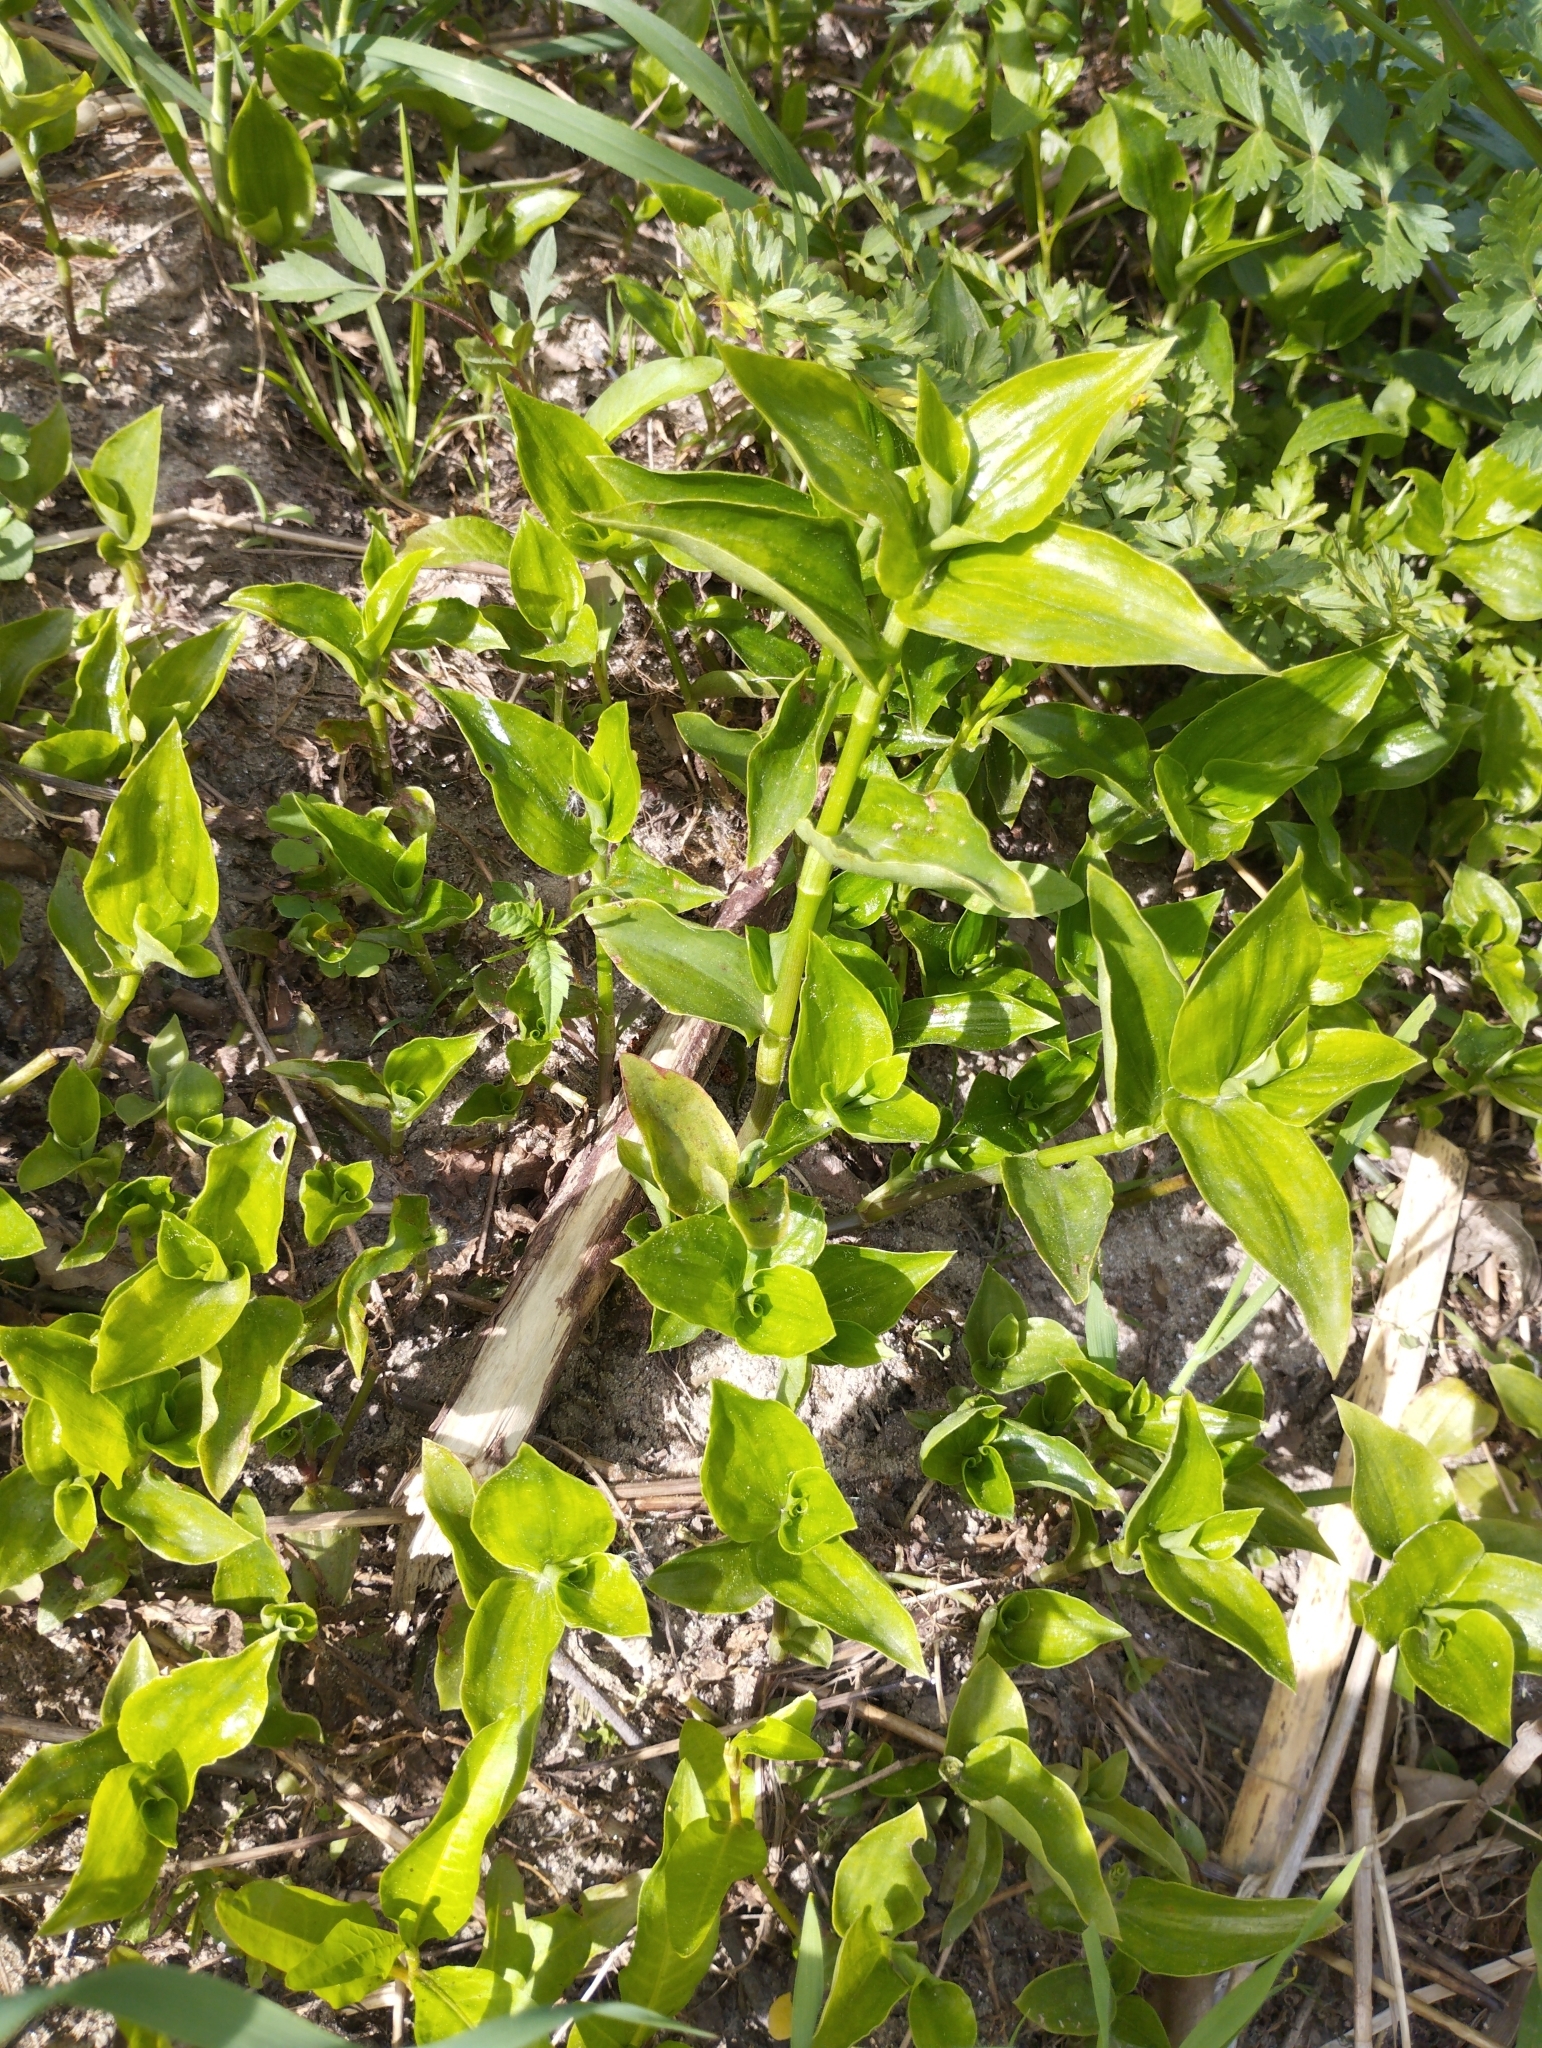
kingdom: Plantae
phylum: Tracheophyta
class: Liliopsida
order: Commelinales
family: Commelinaceae
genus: Tradescantia
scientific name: Tradescantia fluminensis
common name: Wandering-jew
